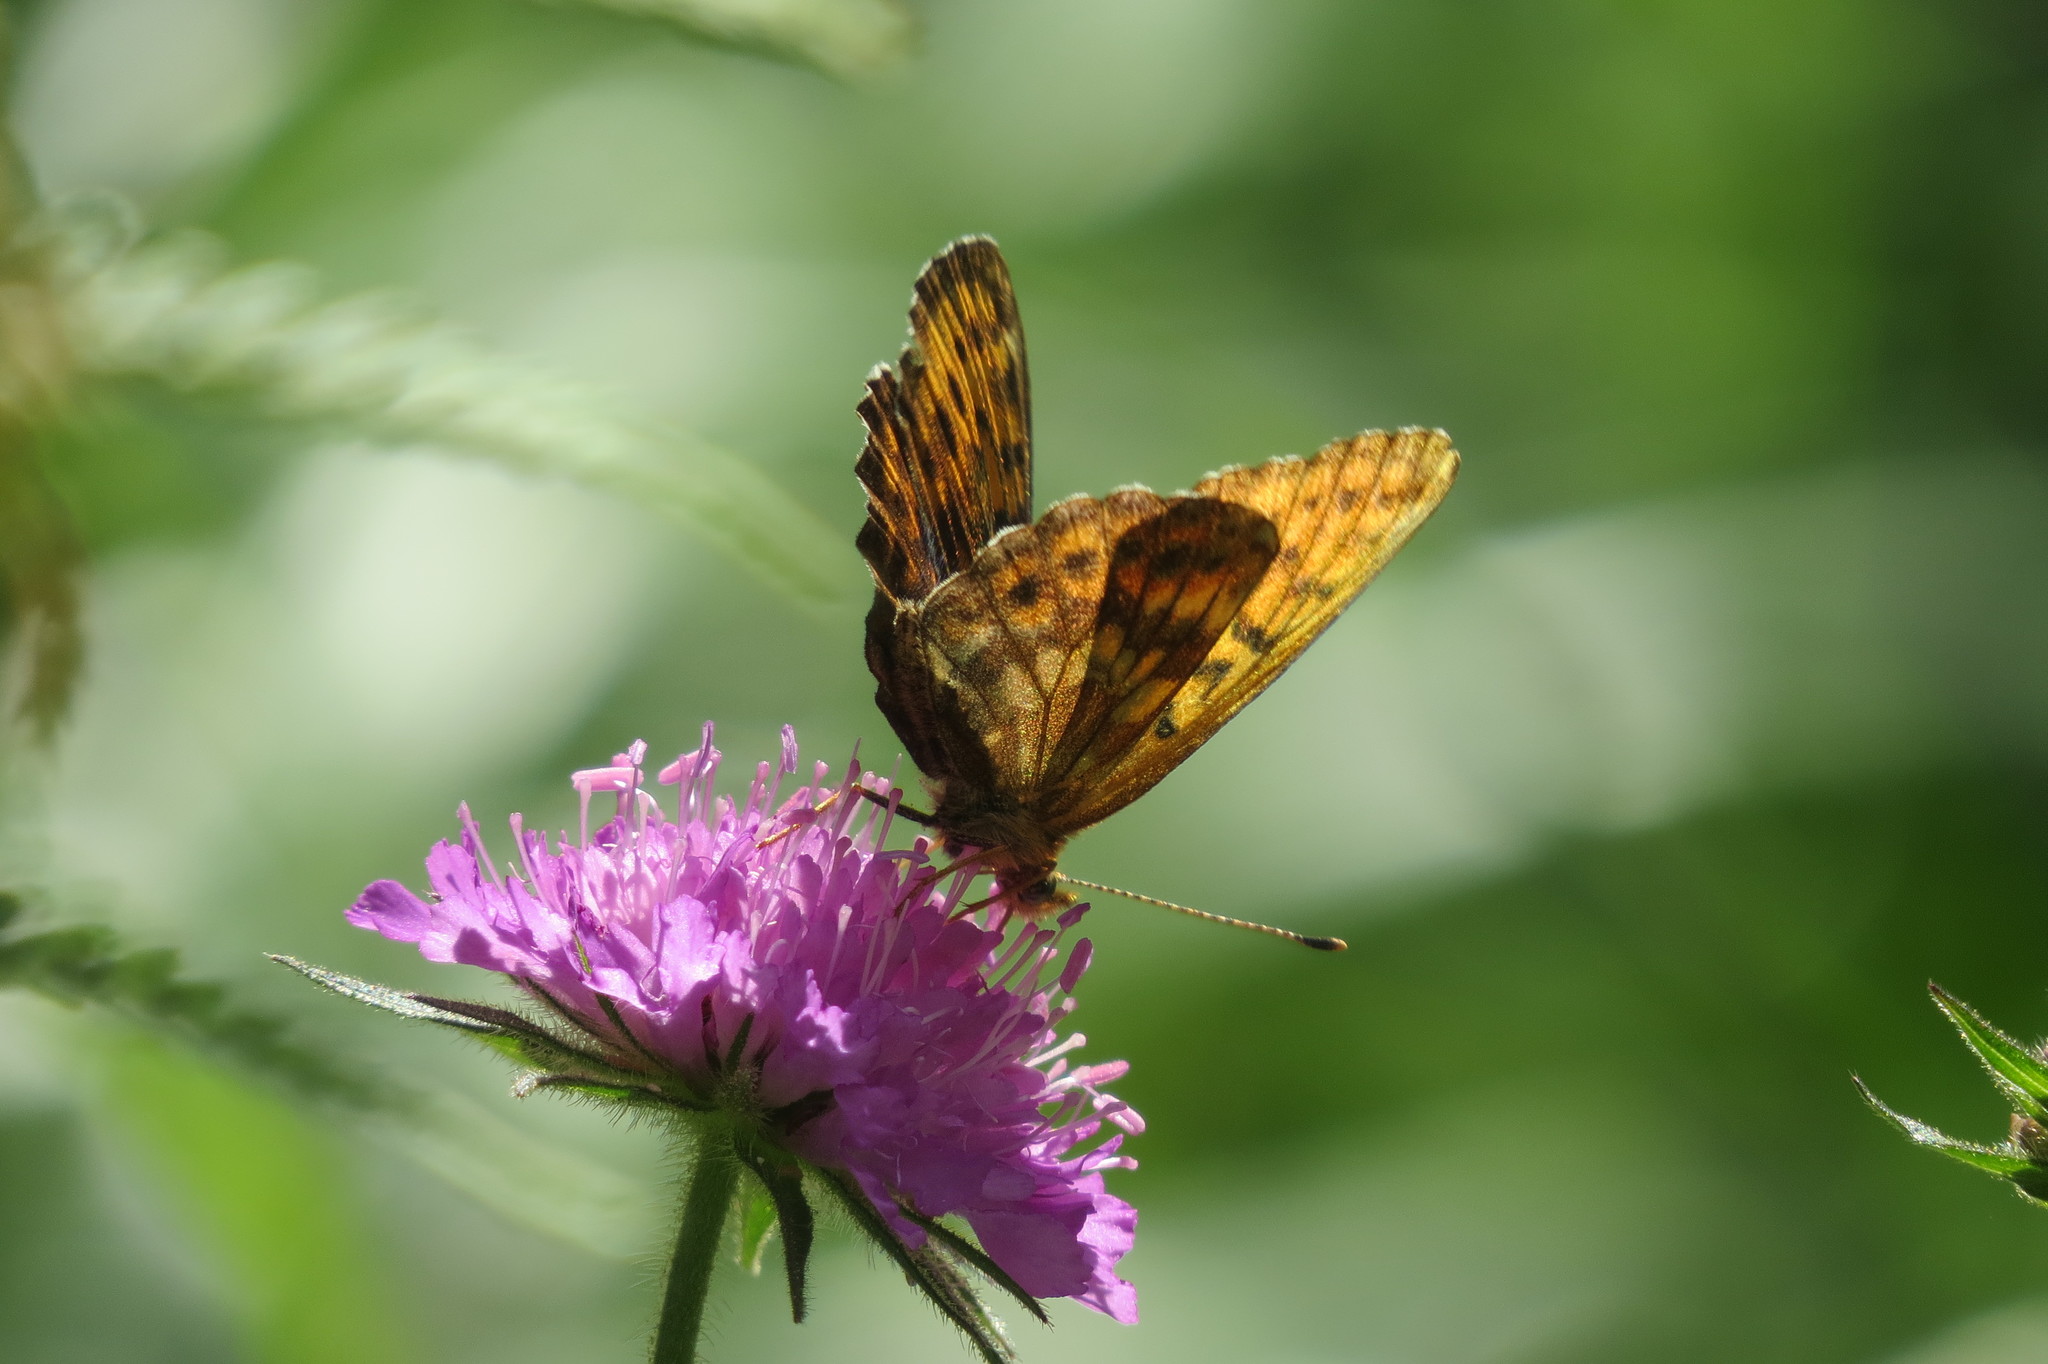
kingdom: Animalia
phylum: Arthropoda
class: Insecta
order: Lepidoptera
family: Nymphalidae
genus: Boloria
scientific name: Boloria thore
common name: Thor's fritillary
